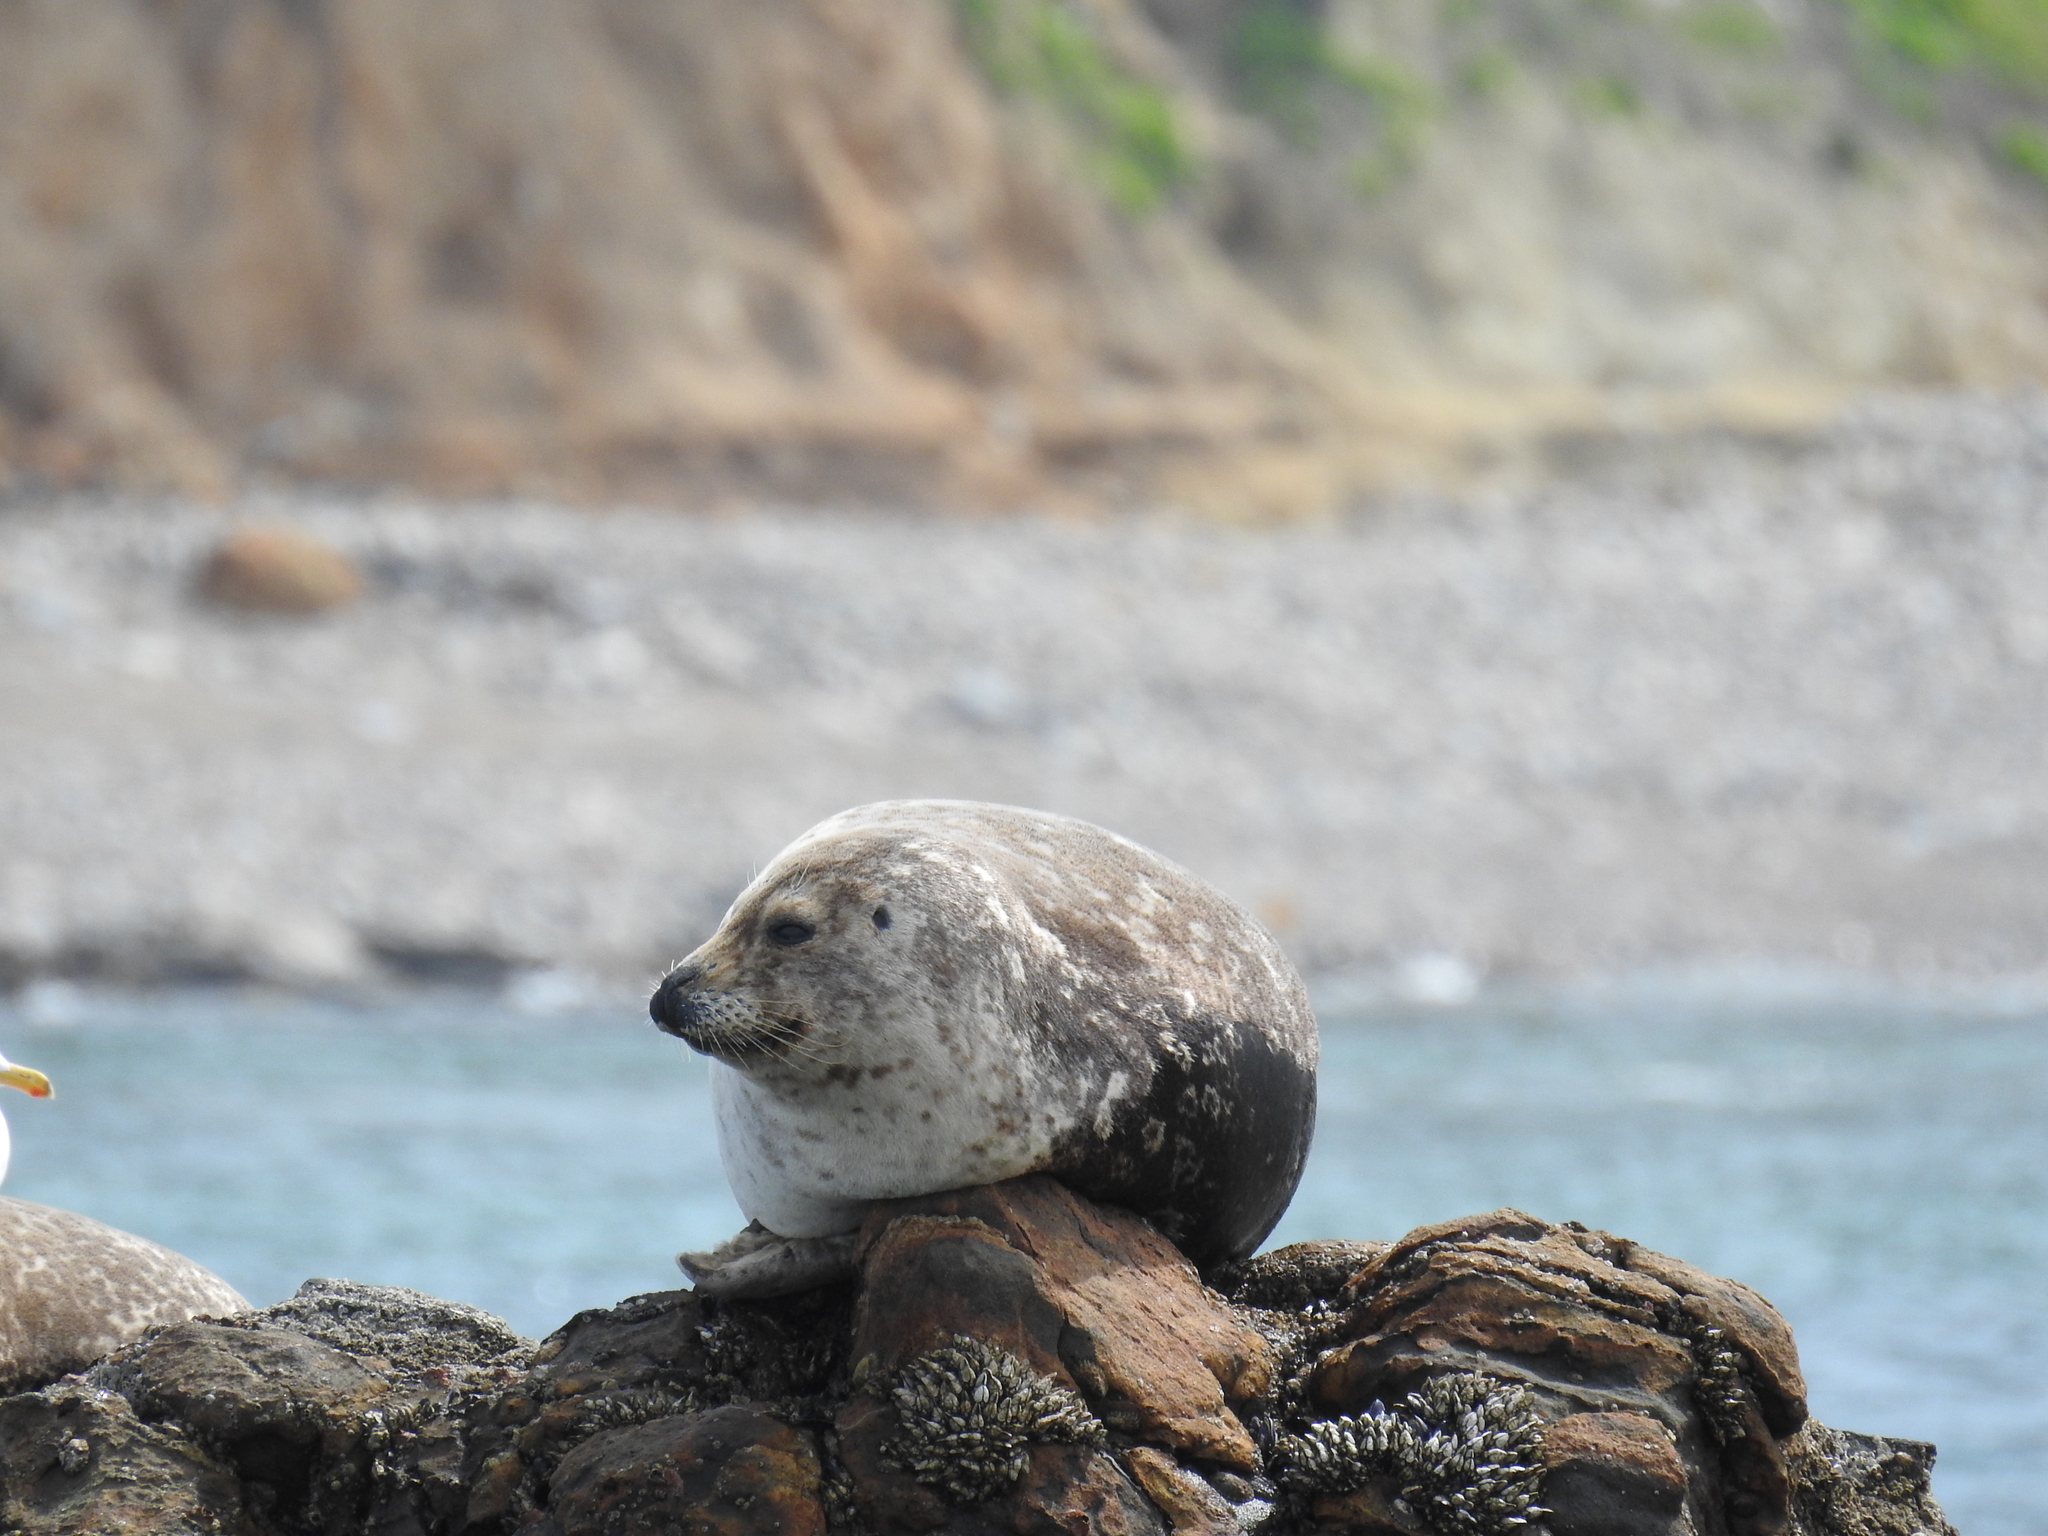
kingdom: Animalia
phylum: Chordata
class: Mammalia
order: Carnivora
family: Phocidae
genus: Phoca
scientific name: Phoca vitulina
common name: Harbor seal
